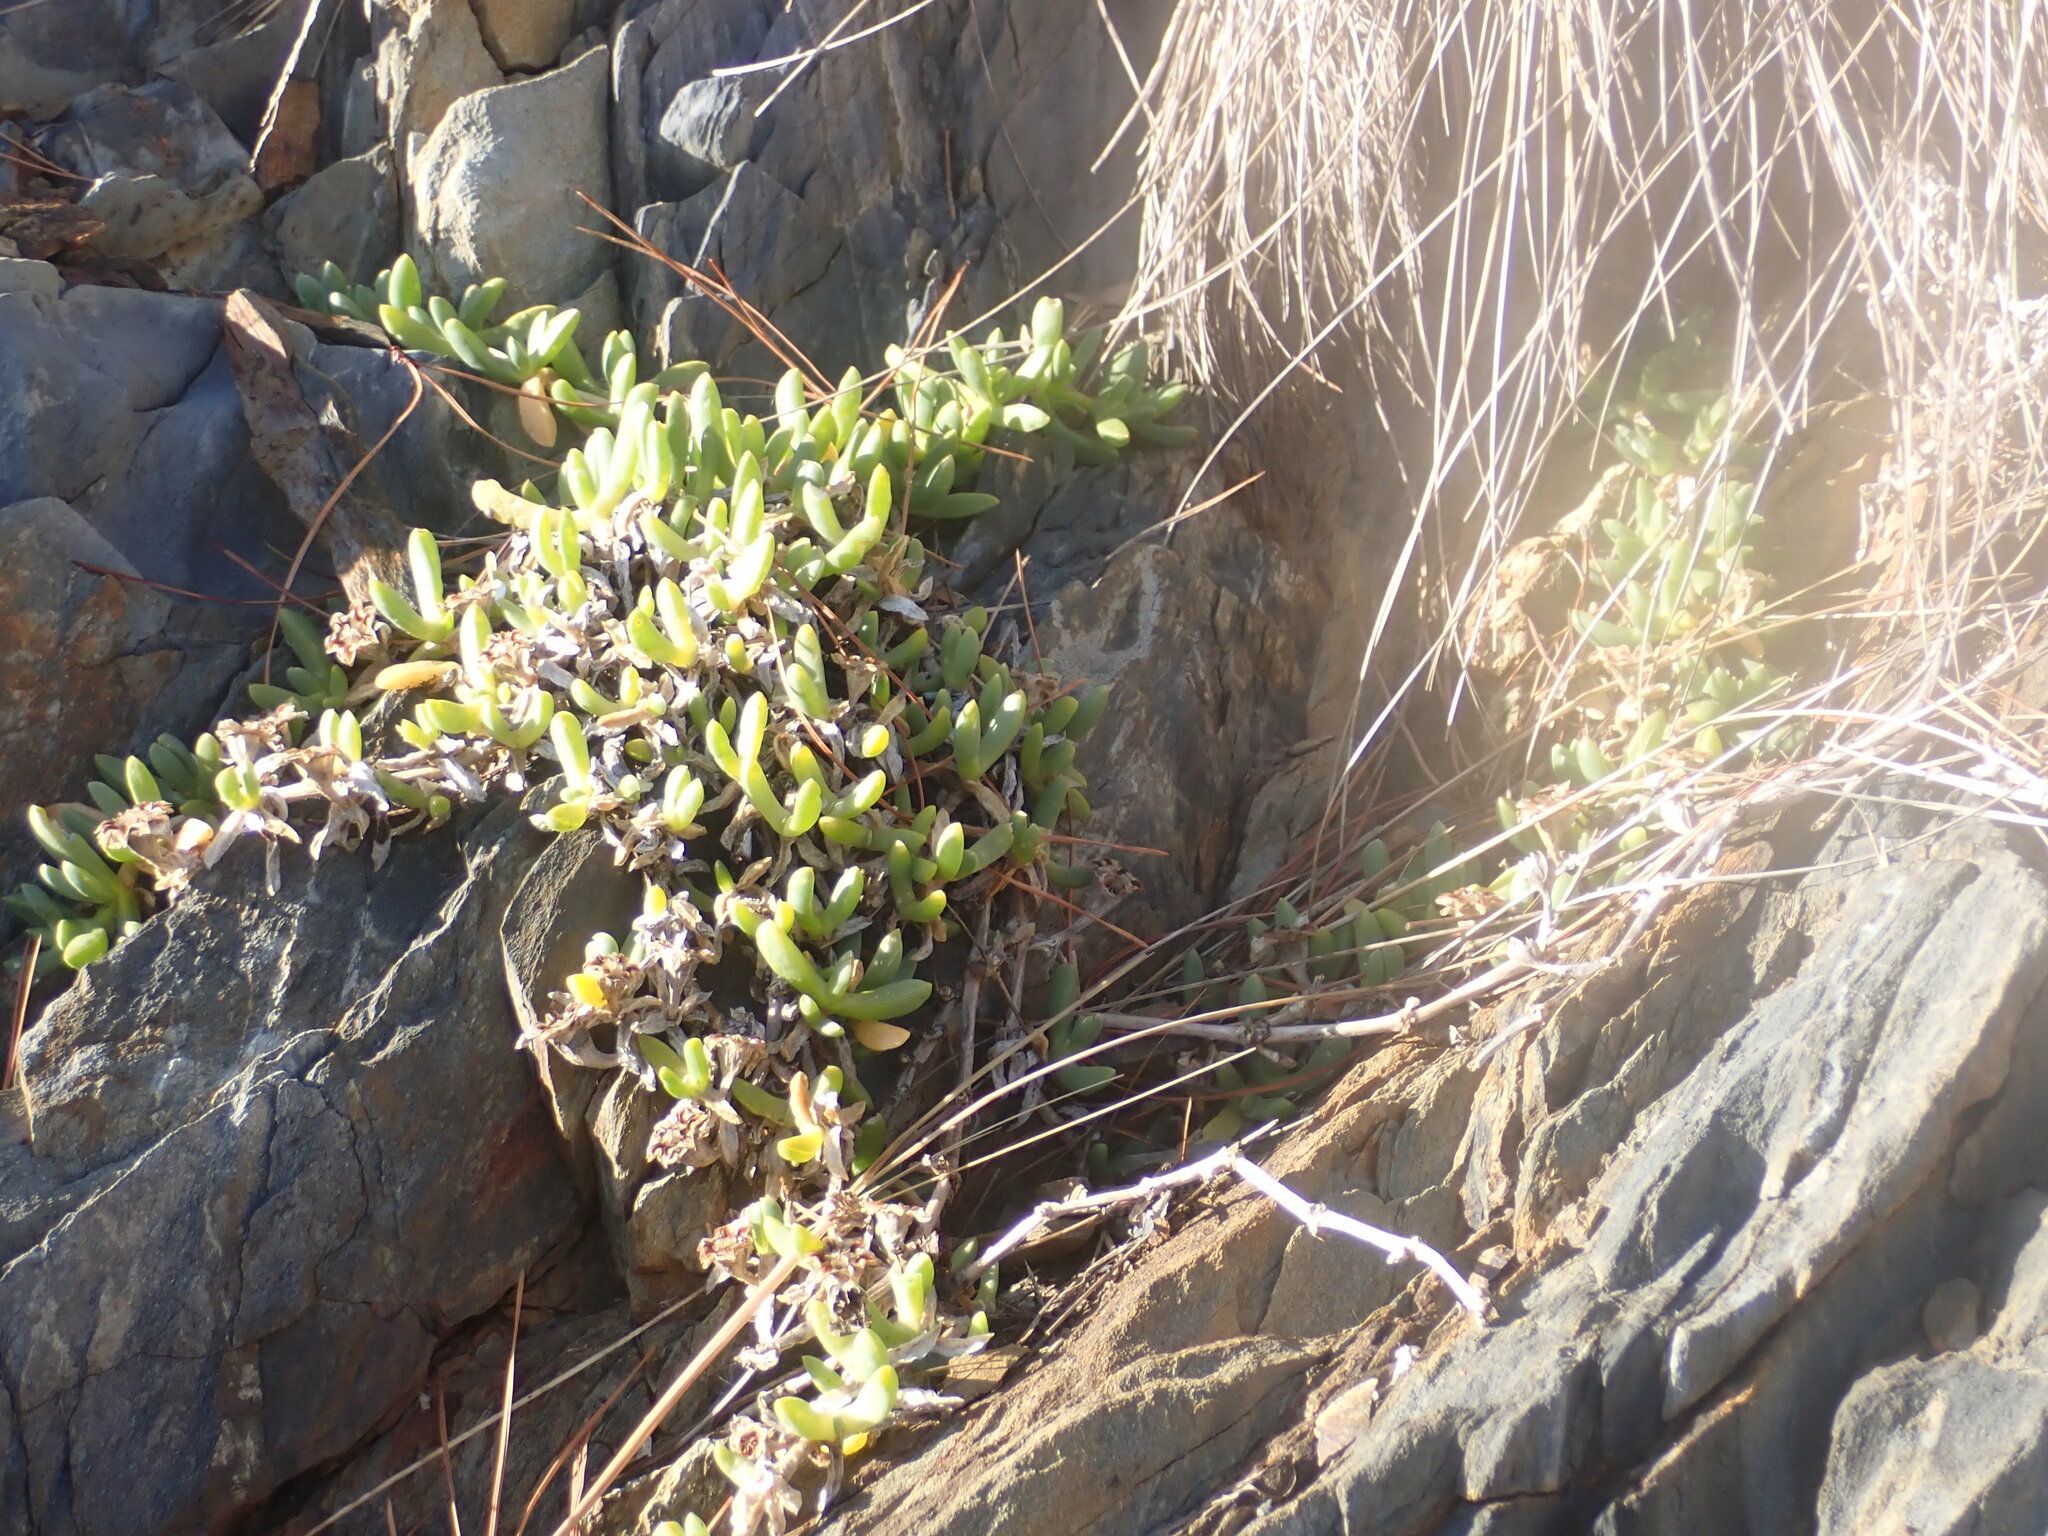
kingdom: Plantae
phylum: Tracheophyta
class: Magnoliopsida
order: Caryophyllales
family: Aizoaceae
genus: Disphyma
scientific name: Disphyma australe
